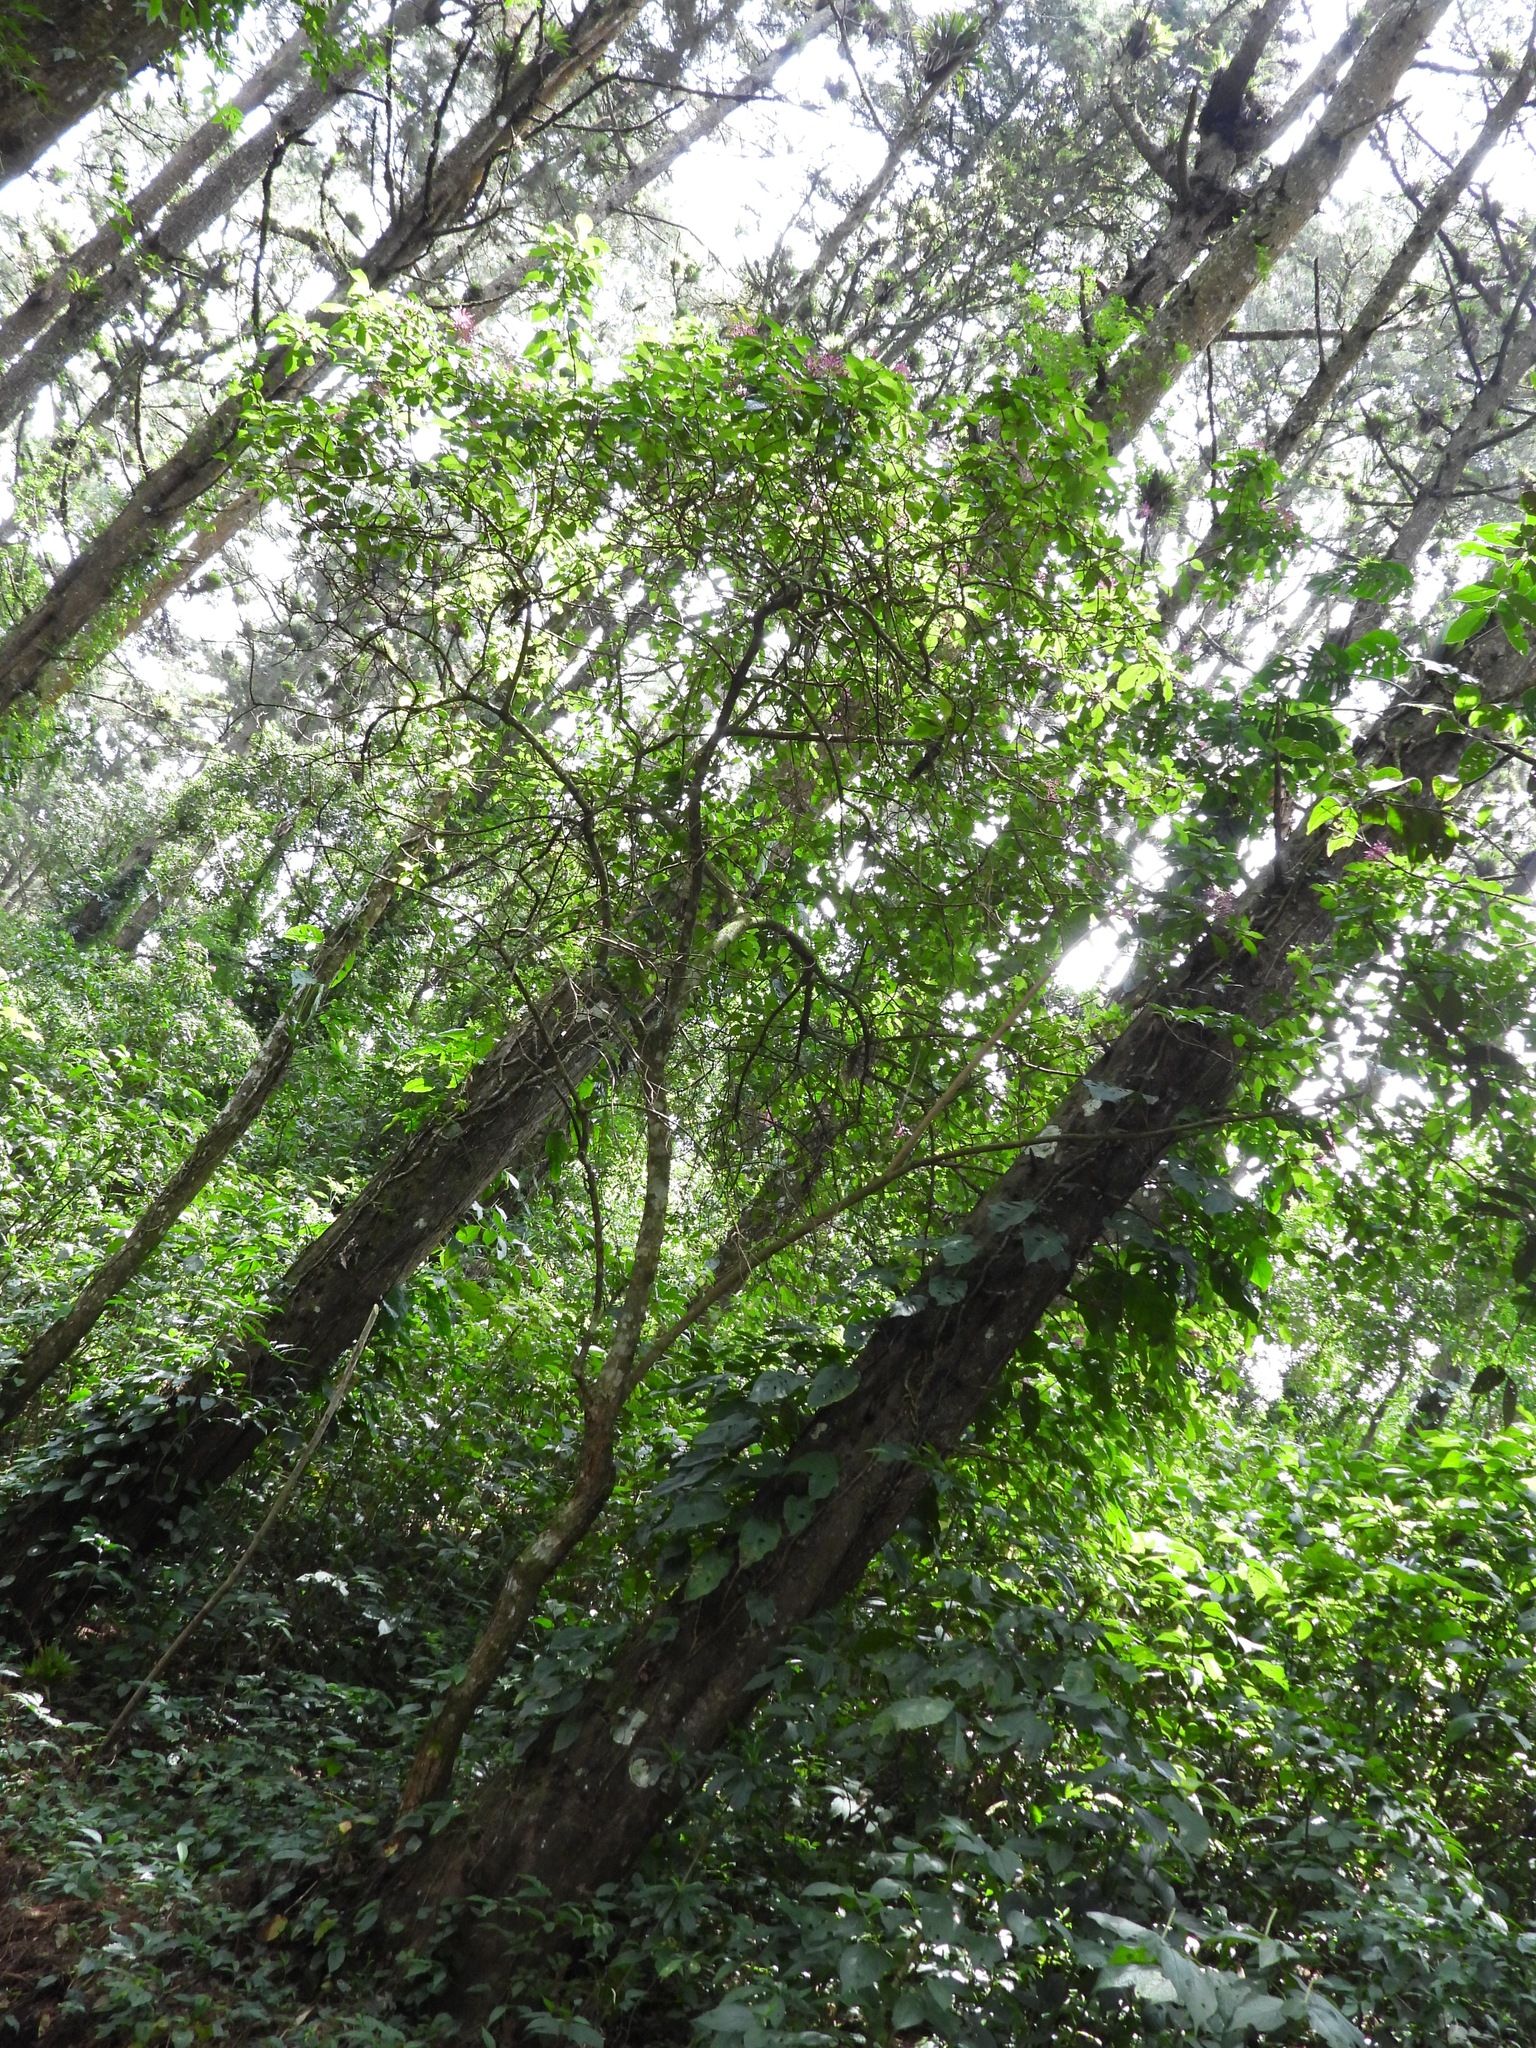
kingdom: Plantae
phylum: Tracheophyta
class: Magnoliopsida
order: Myrtales
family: Onagraceae
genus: Fuchsia
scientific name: Fuchsia paniculata
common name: Shrubby fuchsia
